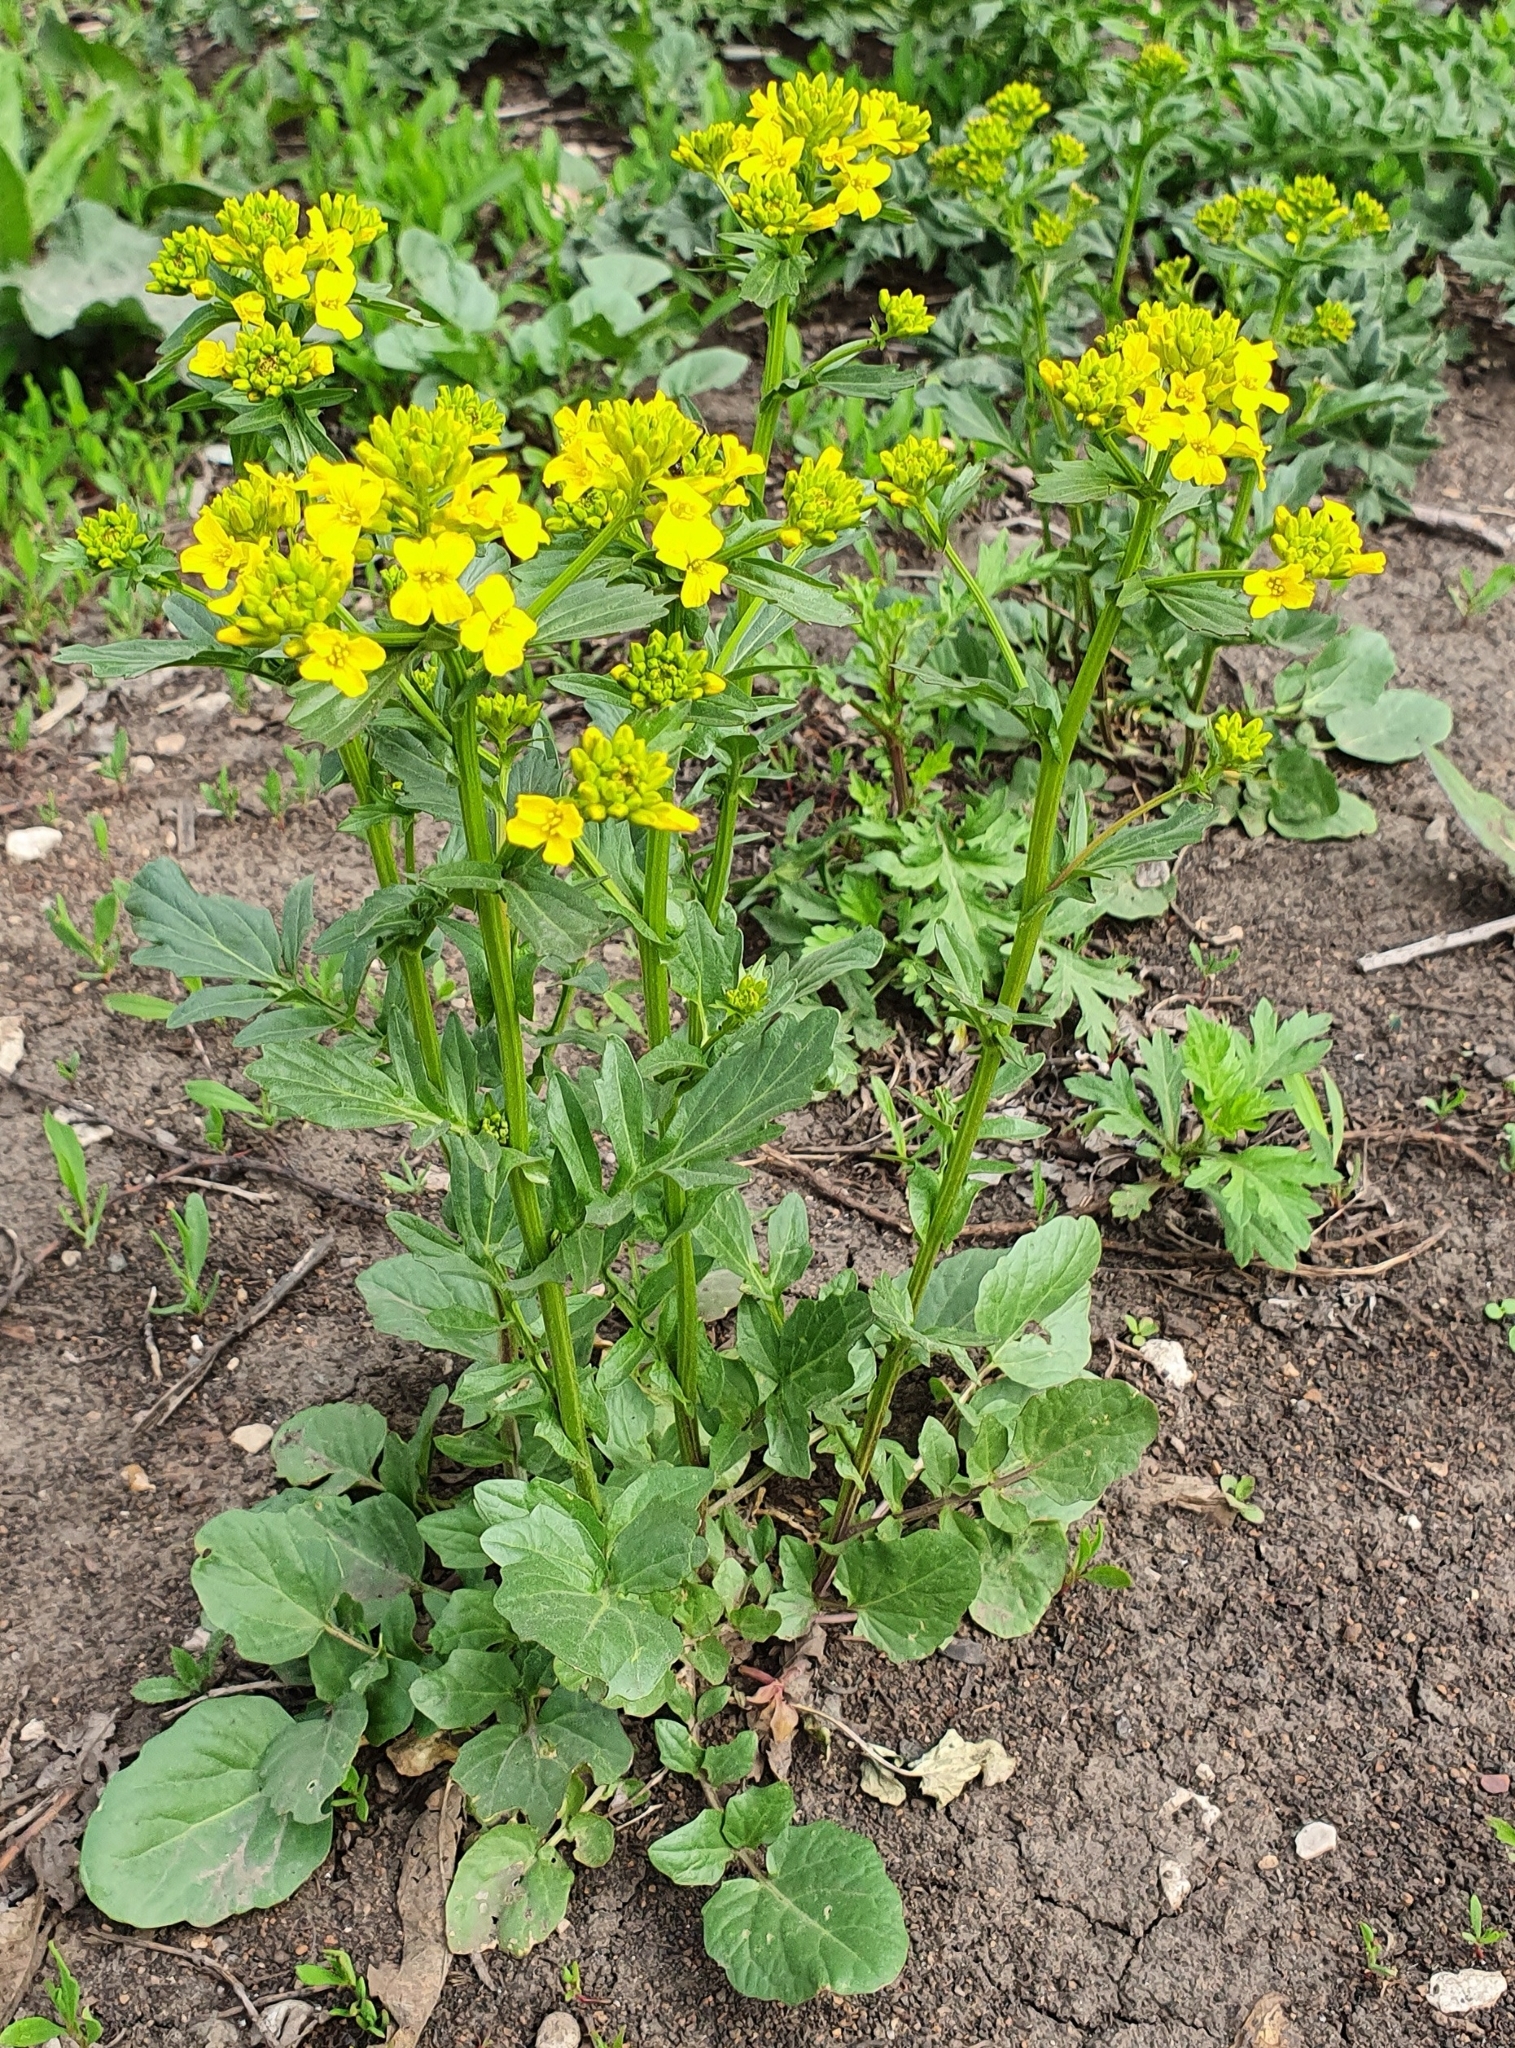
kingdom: Plantae
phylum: Tracheophyta
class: Magnoliopsida
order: Brassicales
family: Brassicaceae
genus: Barbarea
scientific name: Barbarea vulgaris
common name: Cressy-greens
